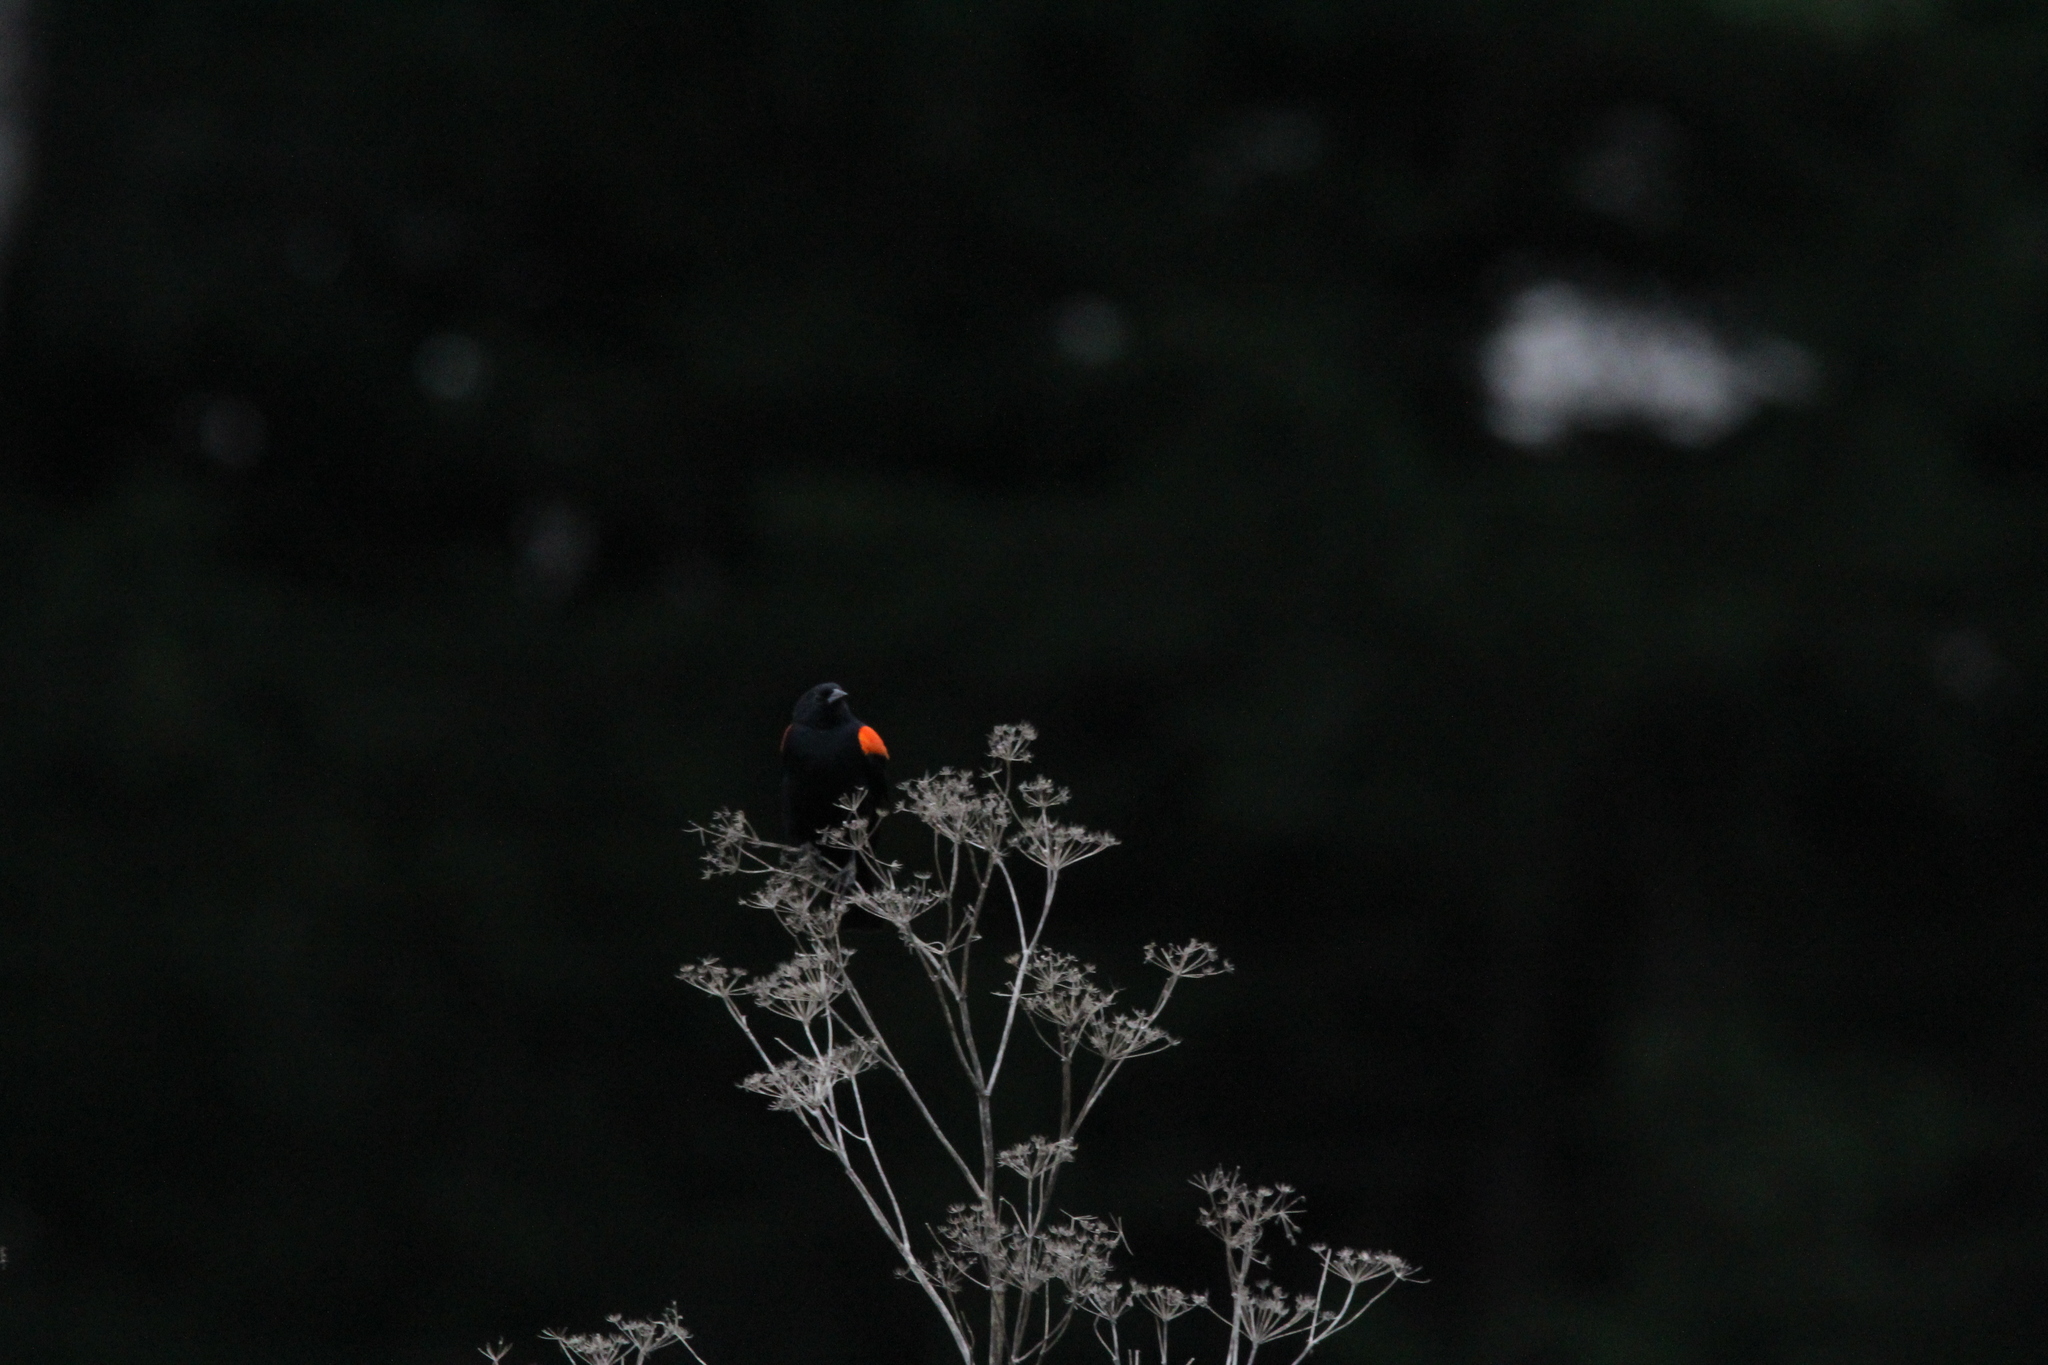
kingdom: Animalia
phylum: Chordata
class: Aves
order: Passeriformes
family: Icteridae
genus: Agelaius
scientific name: Agelaius phoeniceus
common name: Red-winged blackbird
